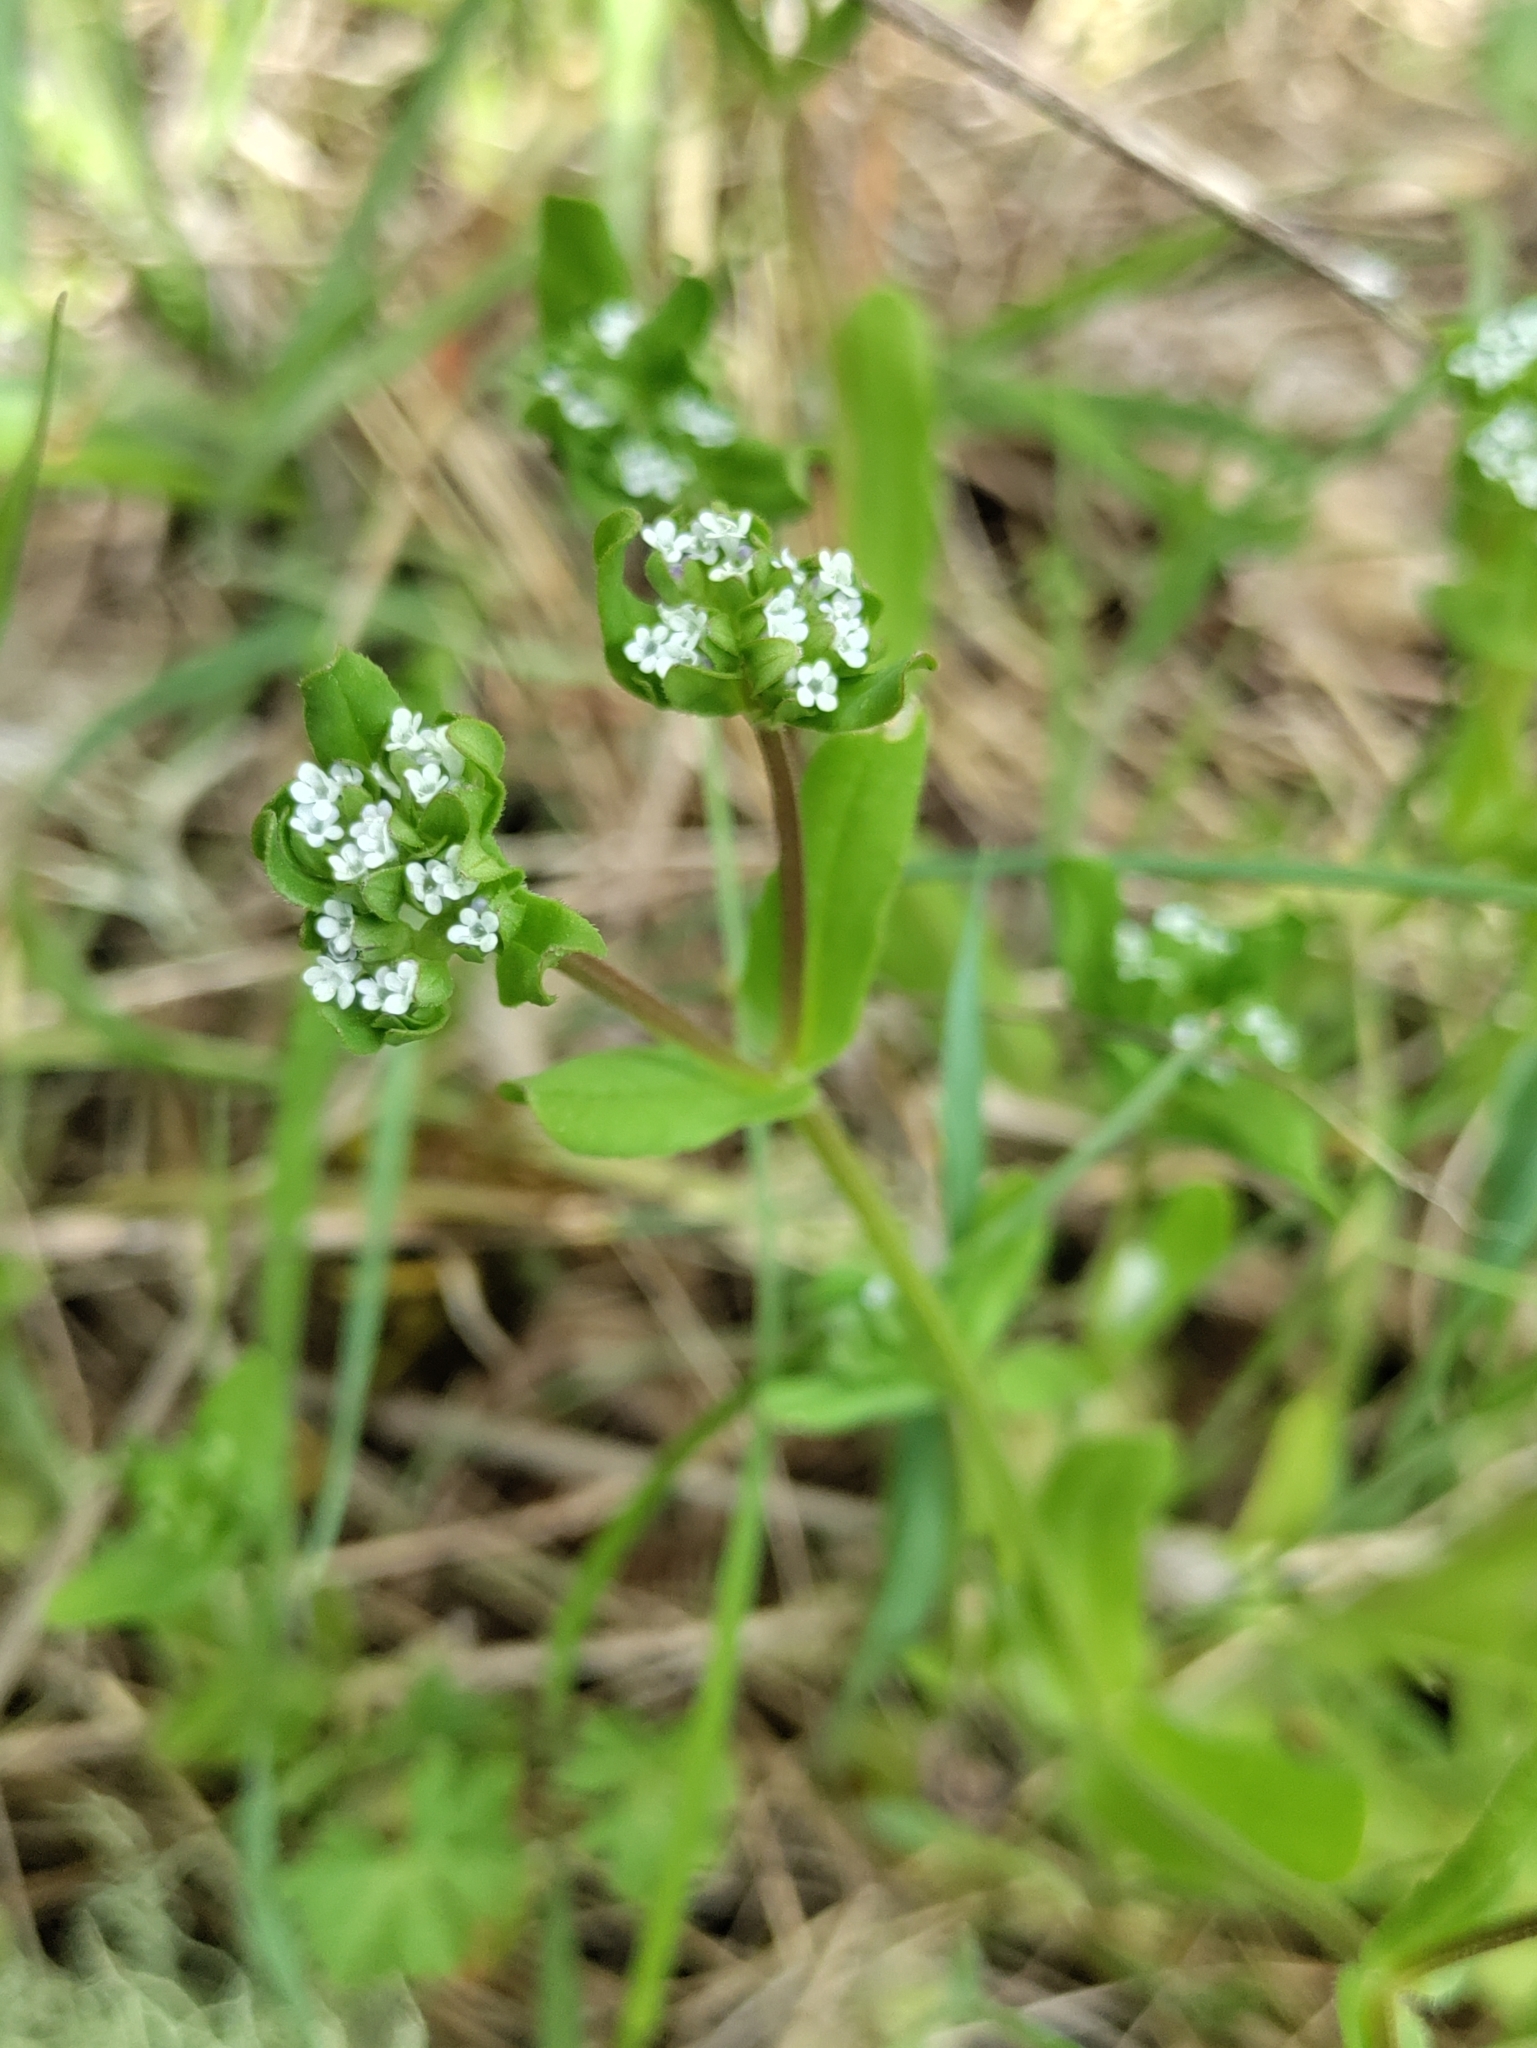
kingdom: Plantae
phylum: Tracheophyta
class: Magnoliopsida
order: Dipsacales
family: Caprifoliaceae
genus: Valerianella
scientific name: Valerianella locusta
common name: Common cornsalad
